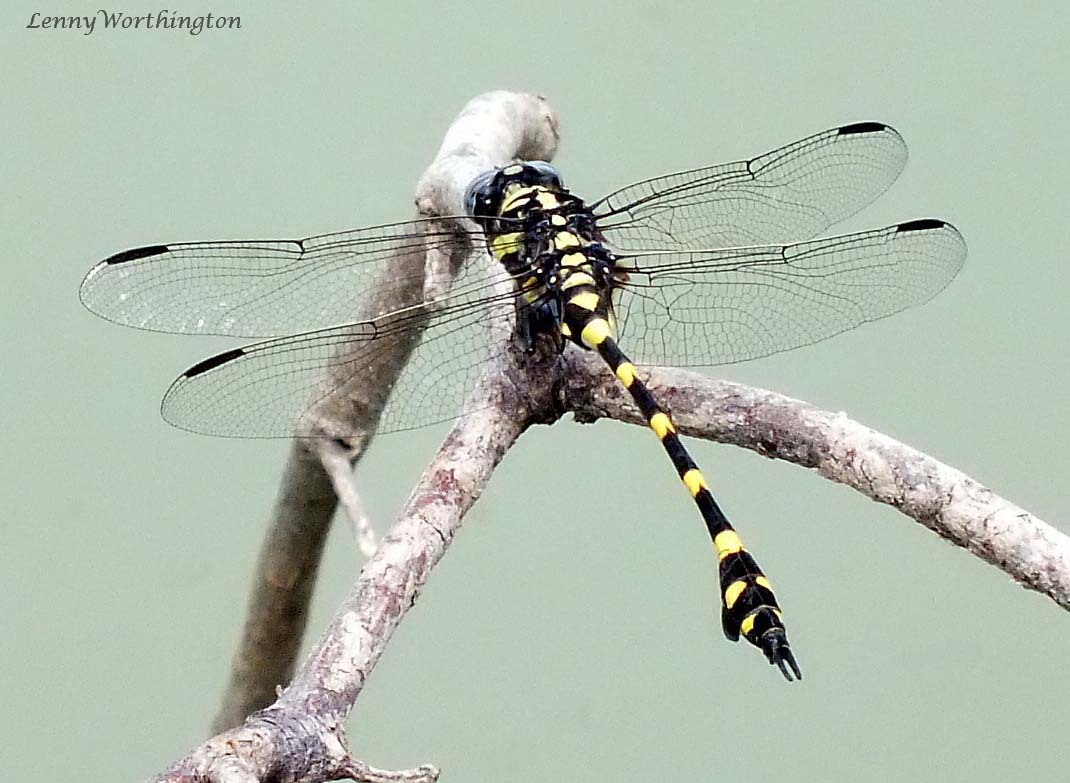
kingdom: Animalia
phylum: Arthropoda
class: Insecta
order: Odonata
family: Gomphidae
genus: Ictinogomphus
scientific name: Ictinogomphus decoratus
